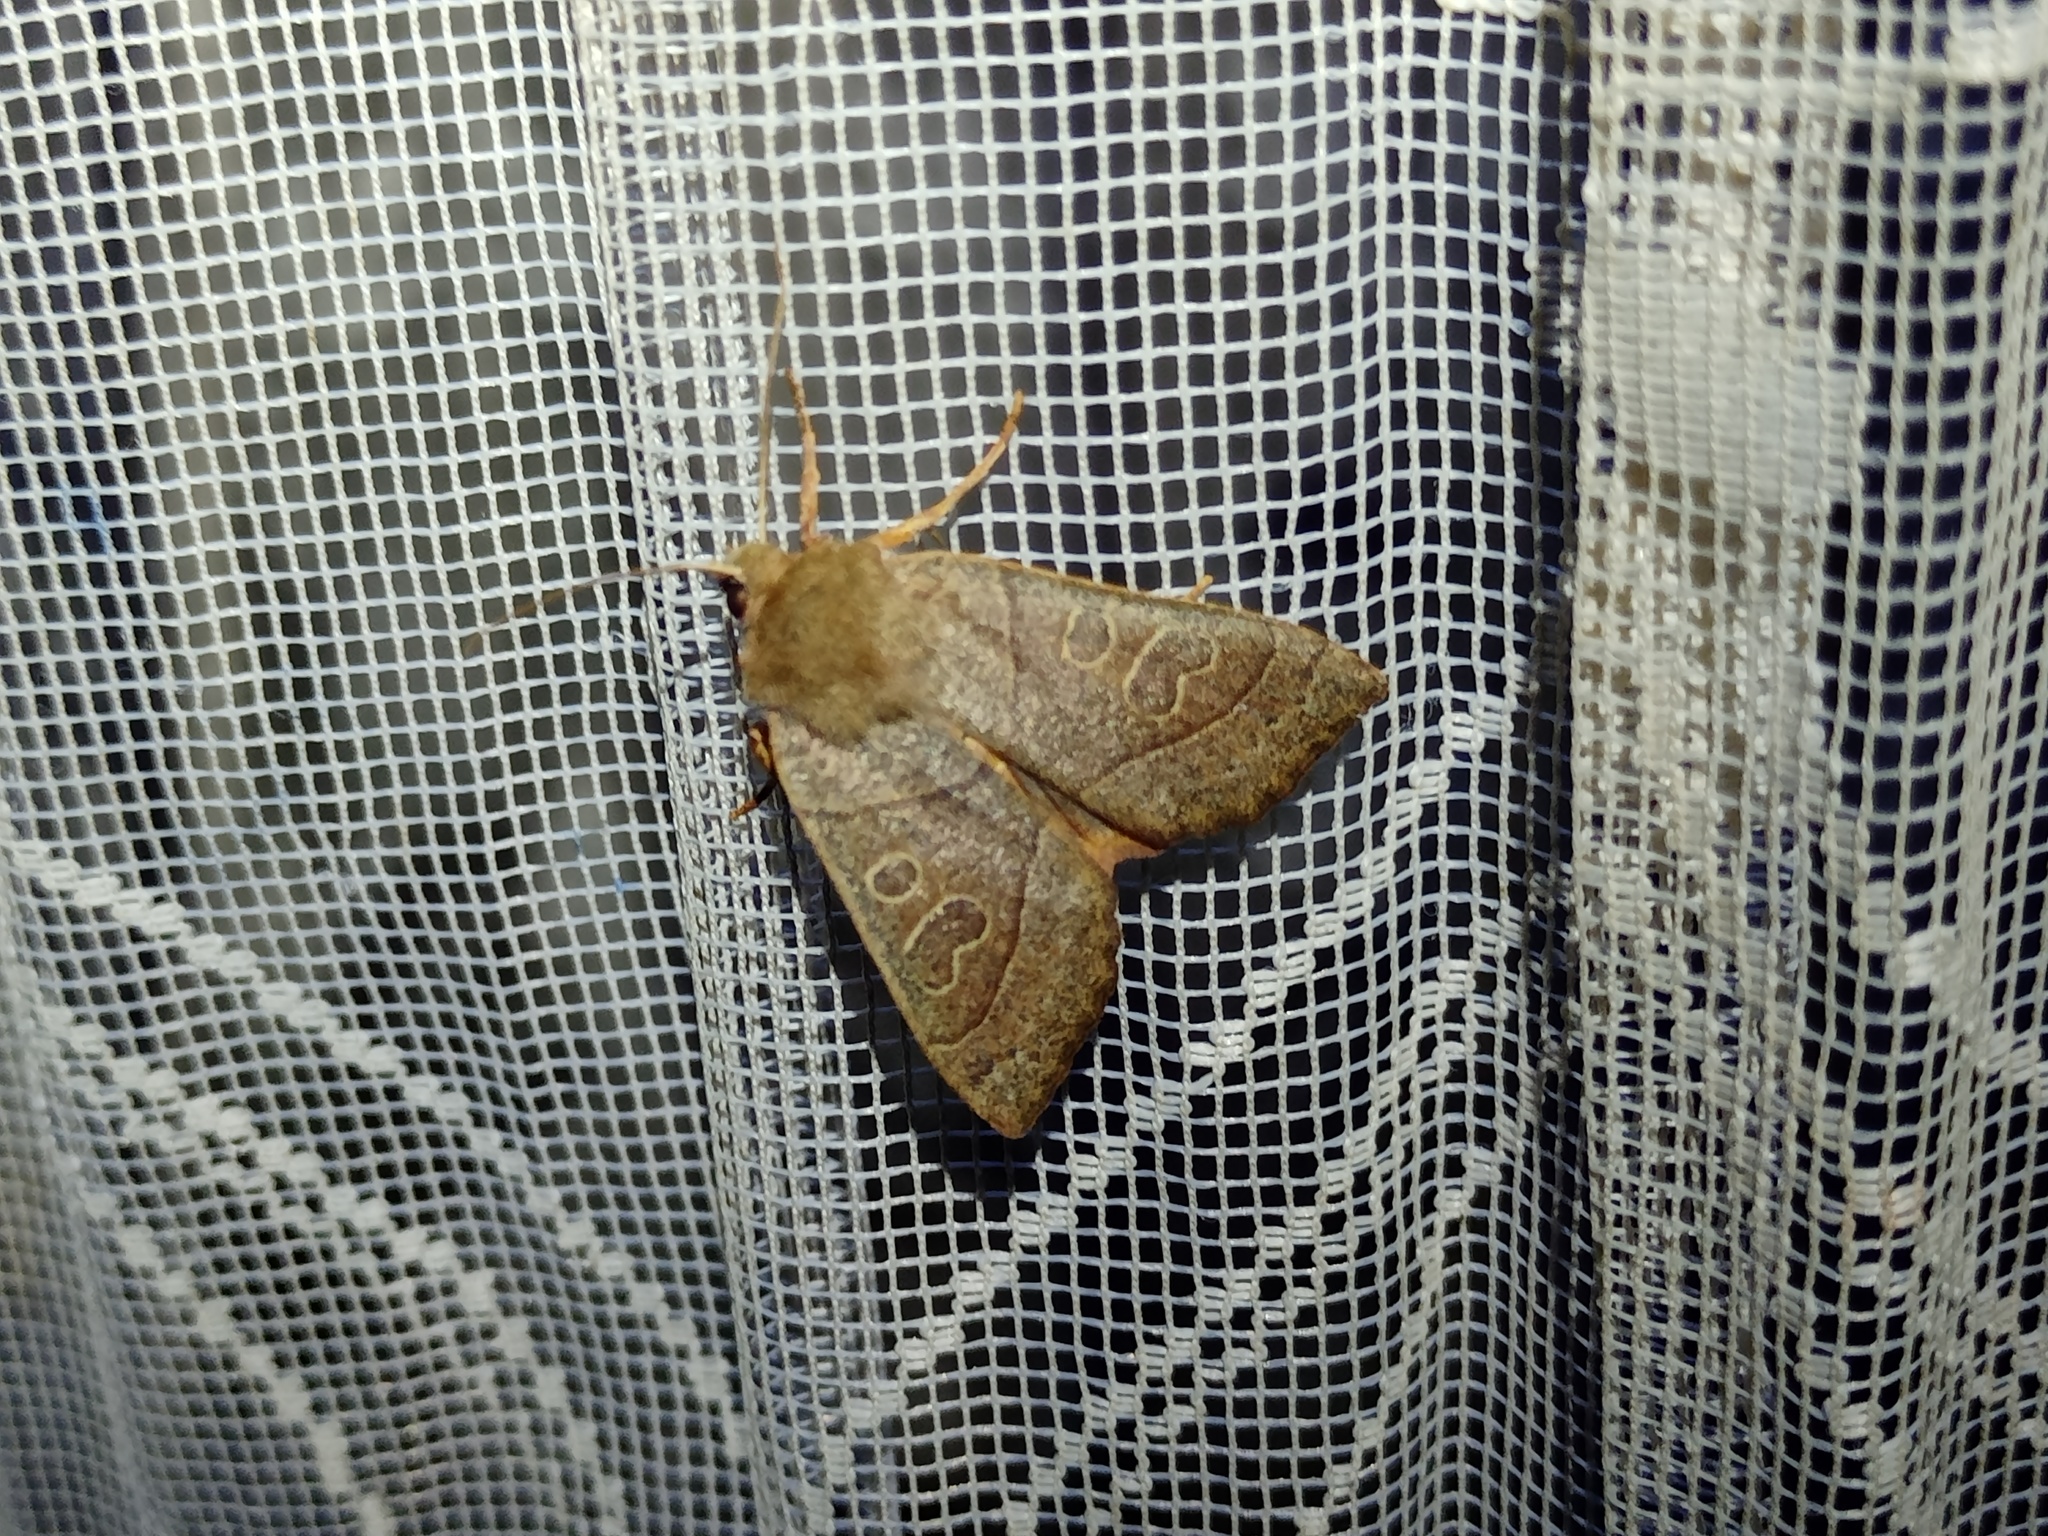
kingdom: Animalia
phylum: Arthropoda
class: Insecta
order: Lepidoptera
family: Noctuidae
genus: Mesogona
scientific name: Mesogona acetosellae
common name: Pale stigma
